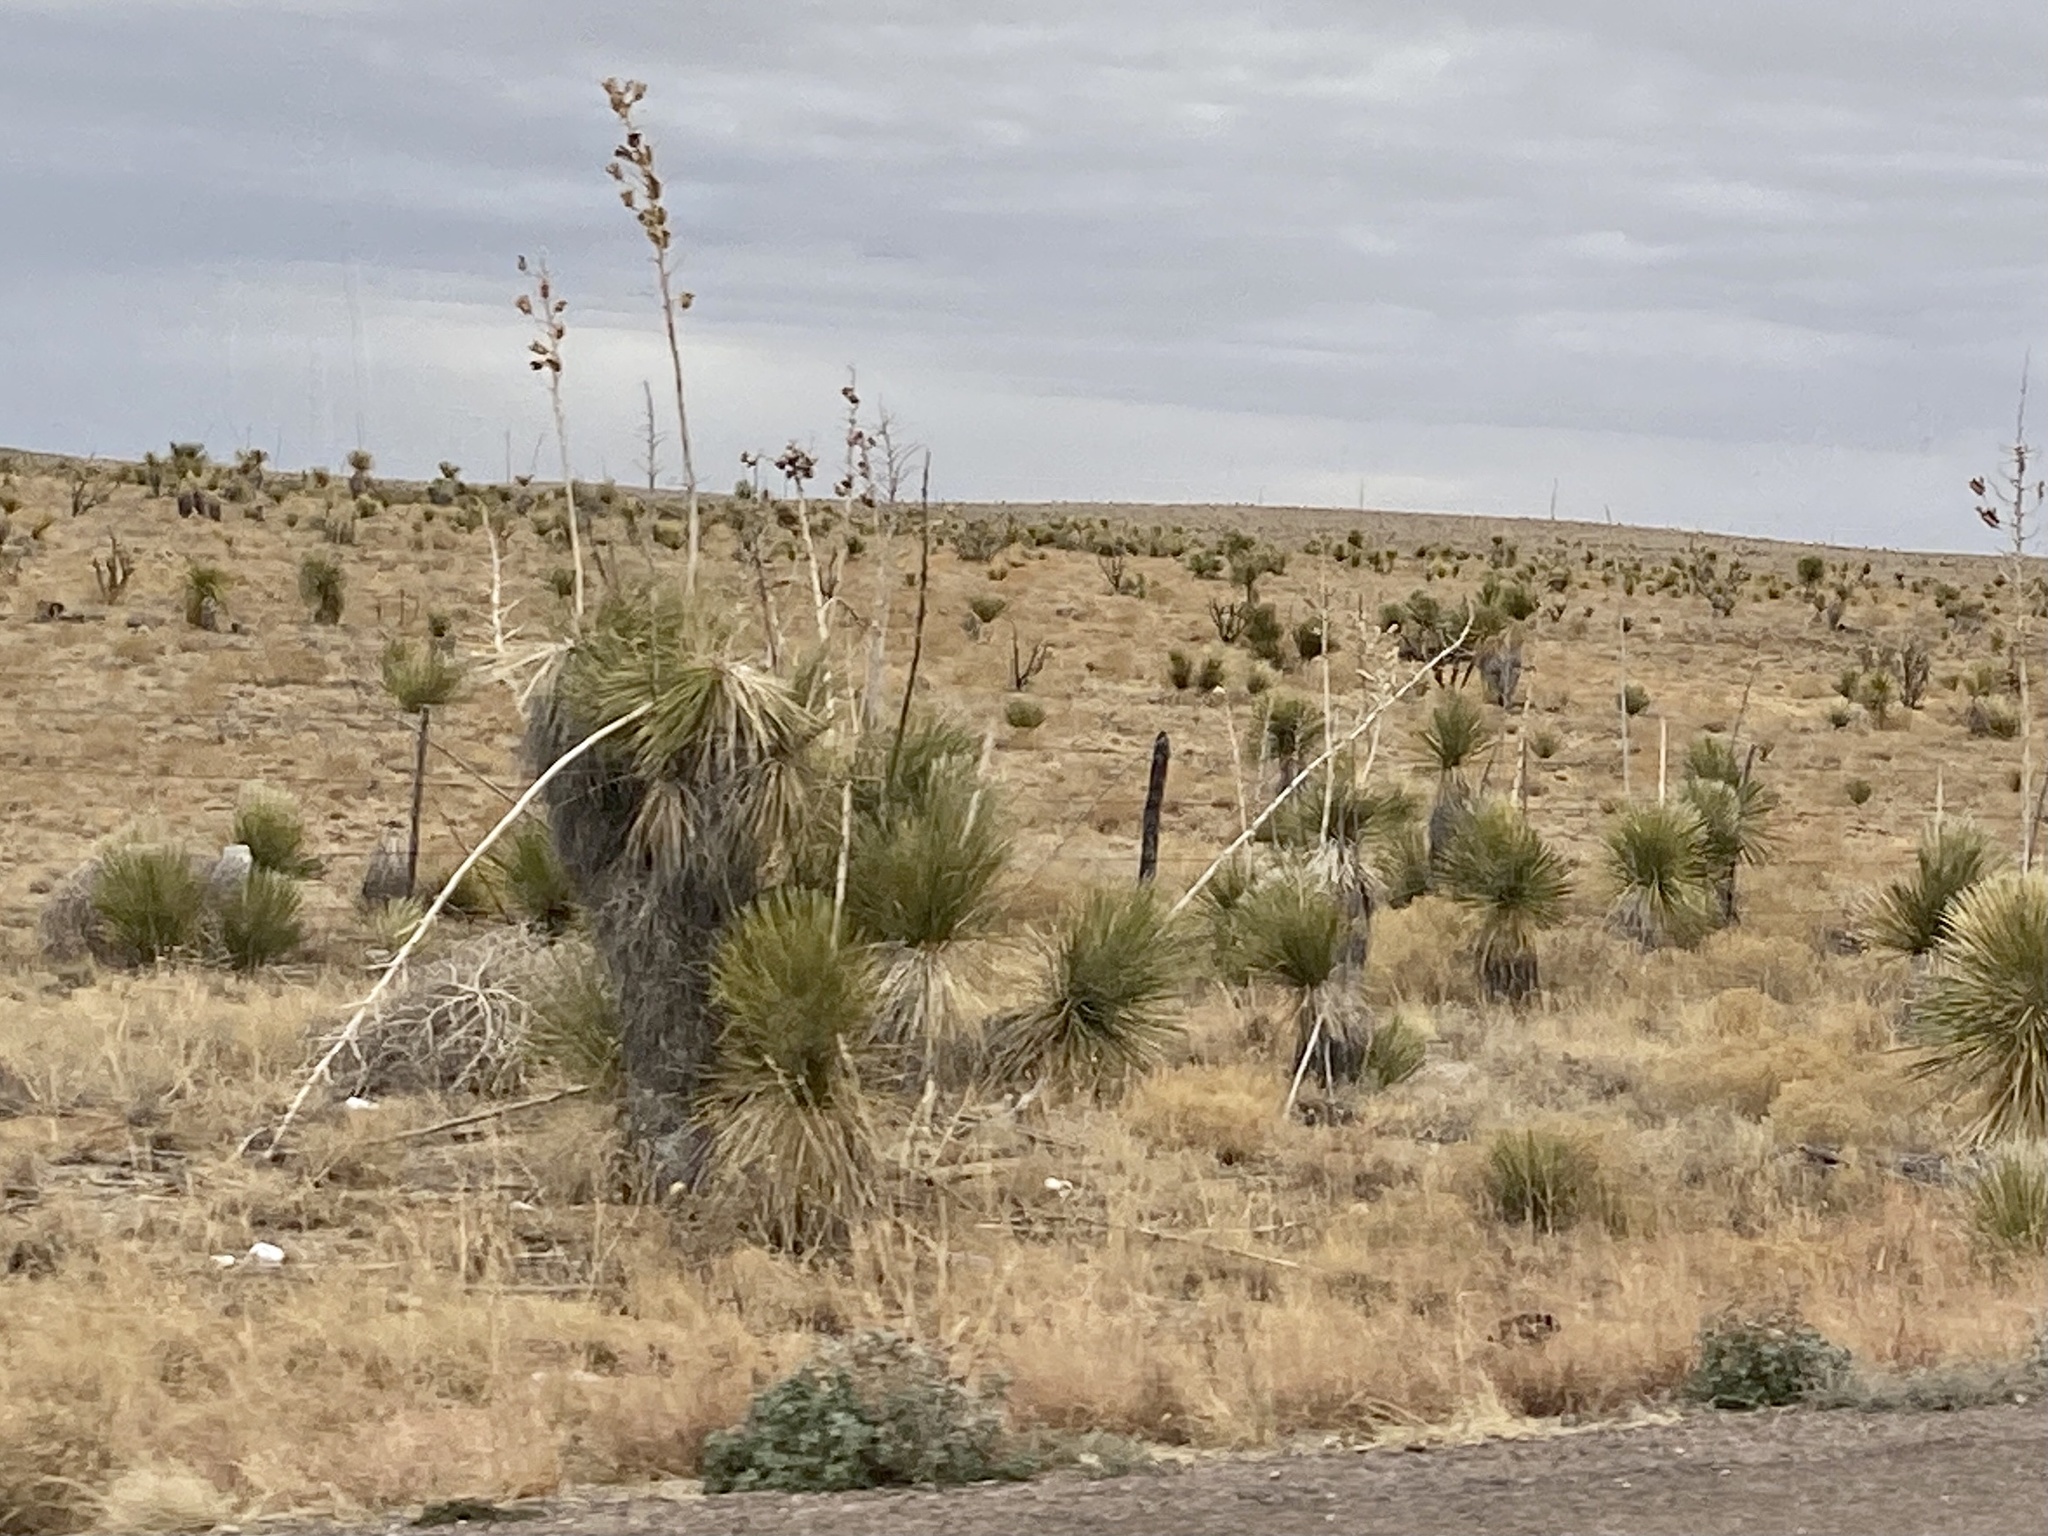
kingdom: Plantae
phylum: Tracheophyta
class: Liliopsida
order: Asparagales
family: Asparagaceae
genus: Yucca
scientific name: Yucca elata
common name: Palmella
